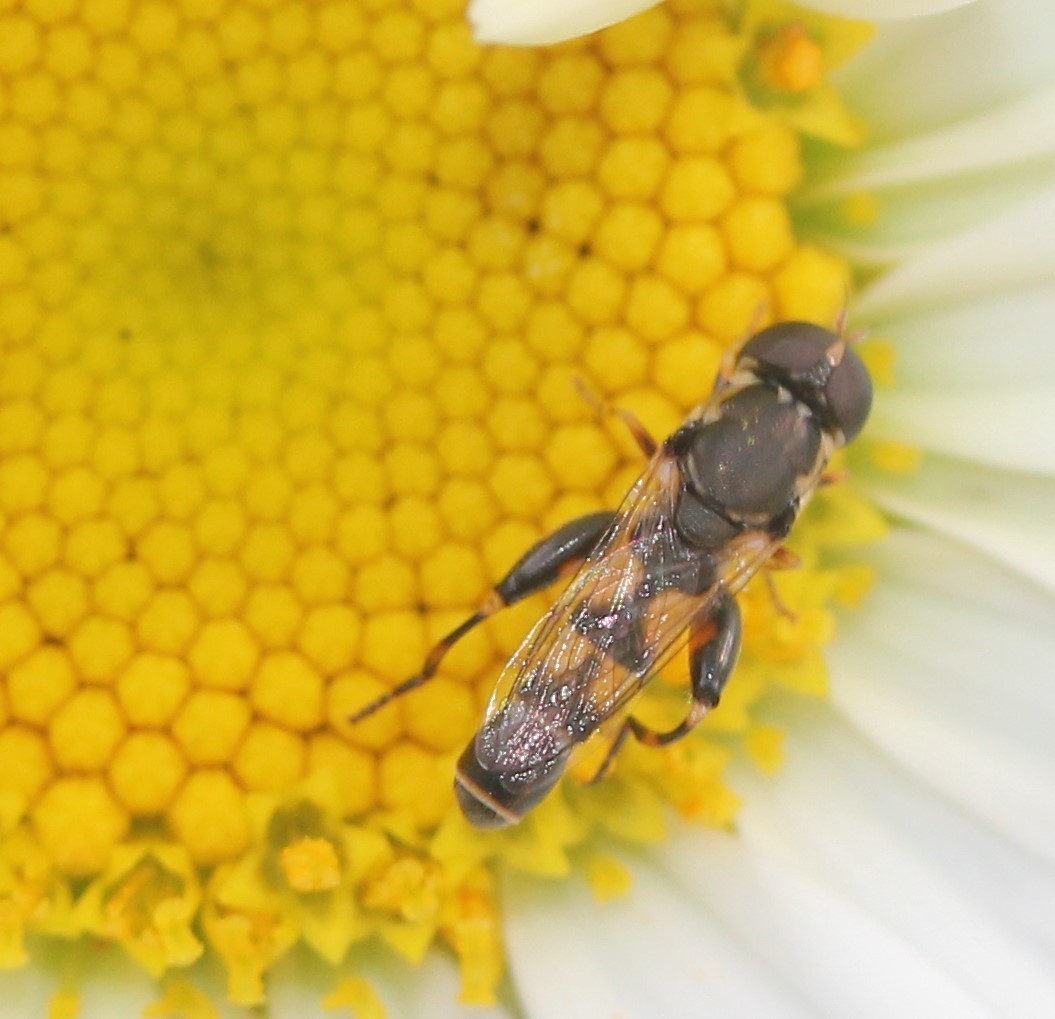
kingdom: Animalia
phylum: Arthropoda
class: Insecta
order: Diptera
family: Syrphidae
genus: Syritta
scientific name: Syritta pipiens
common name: Hover fly
